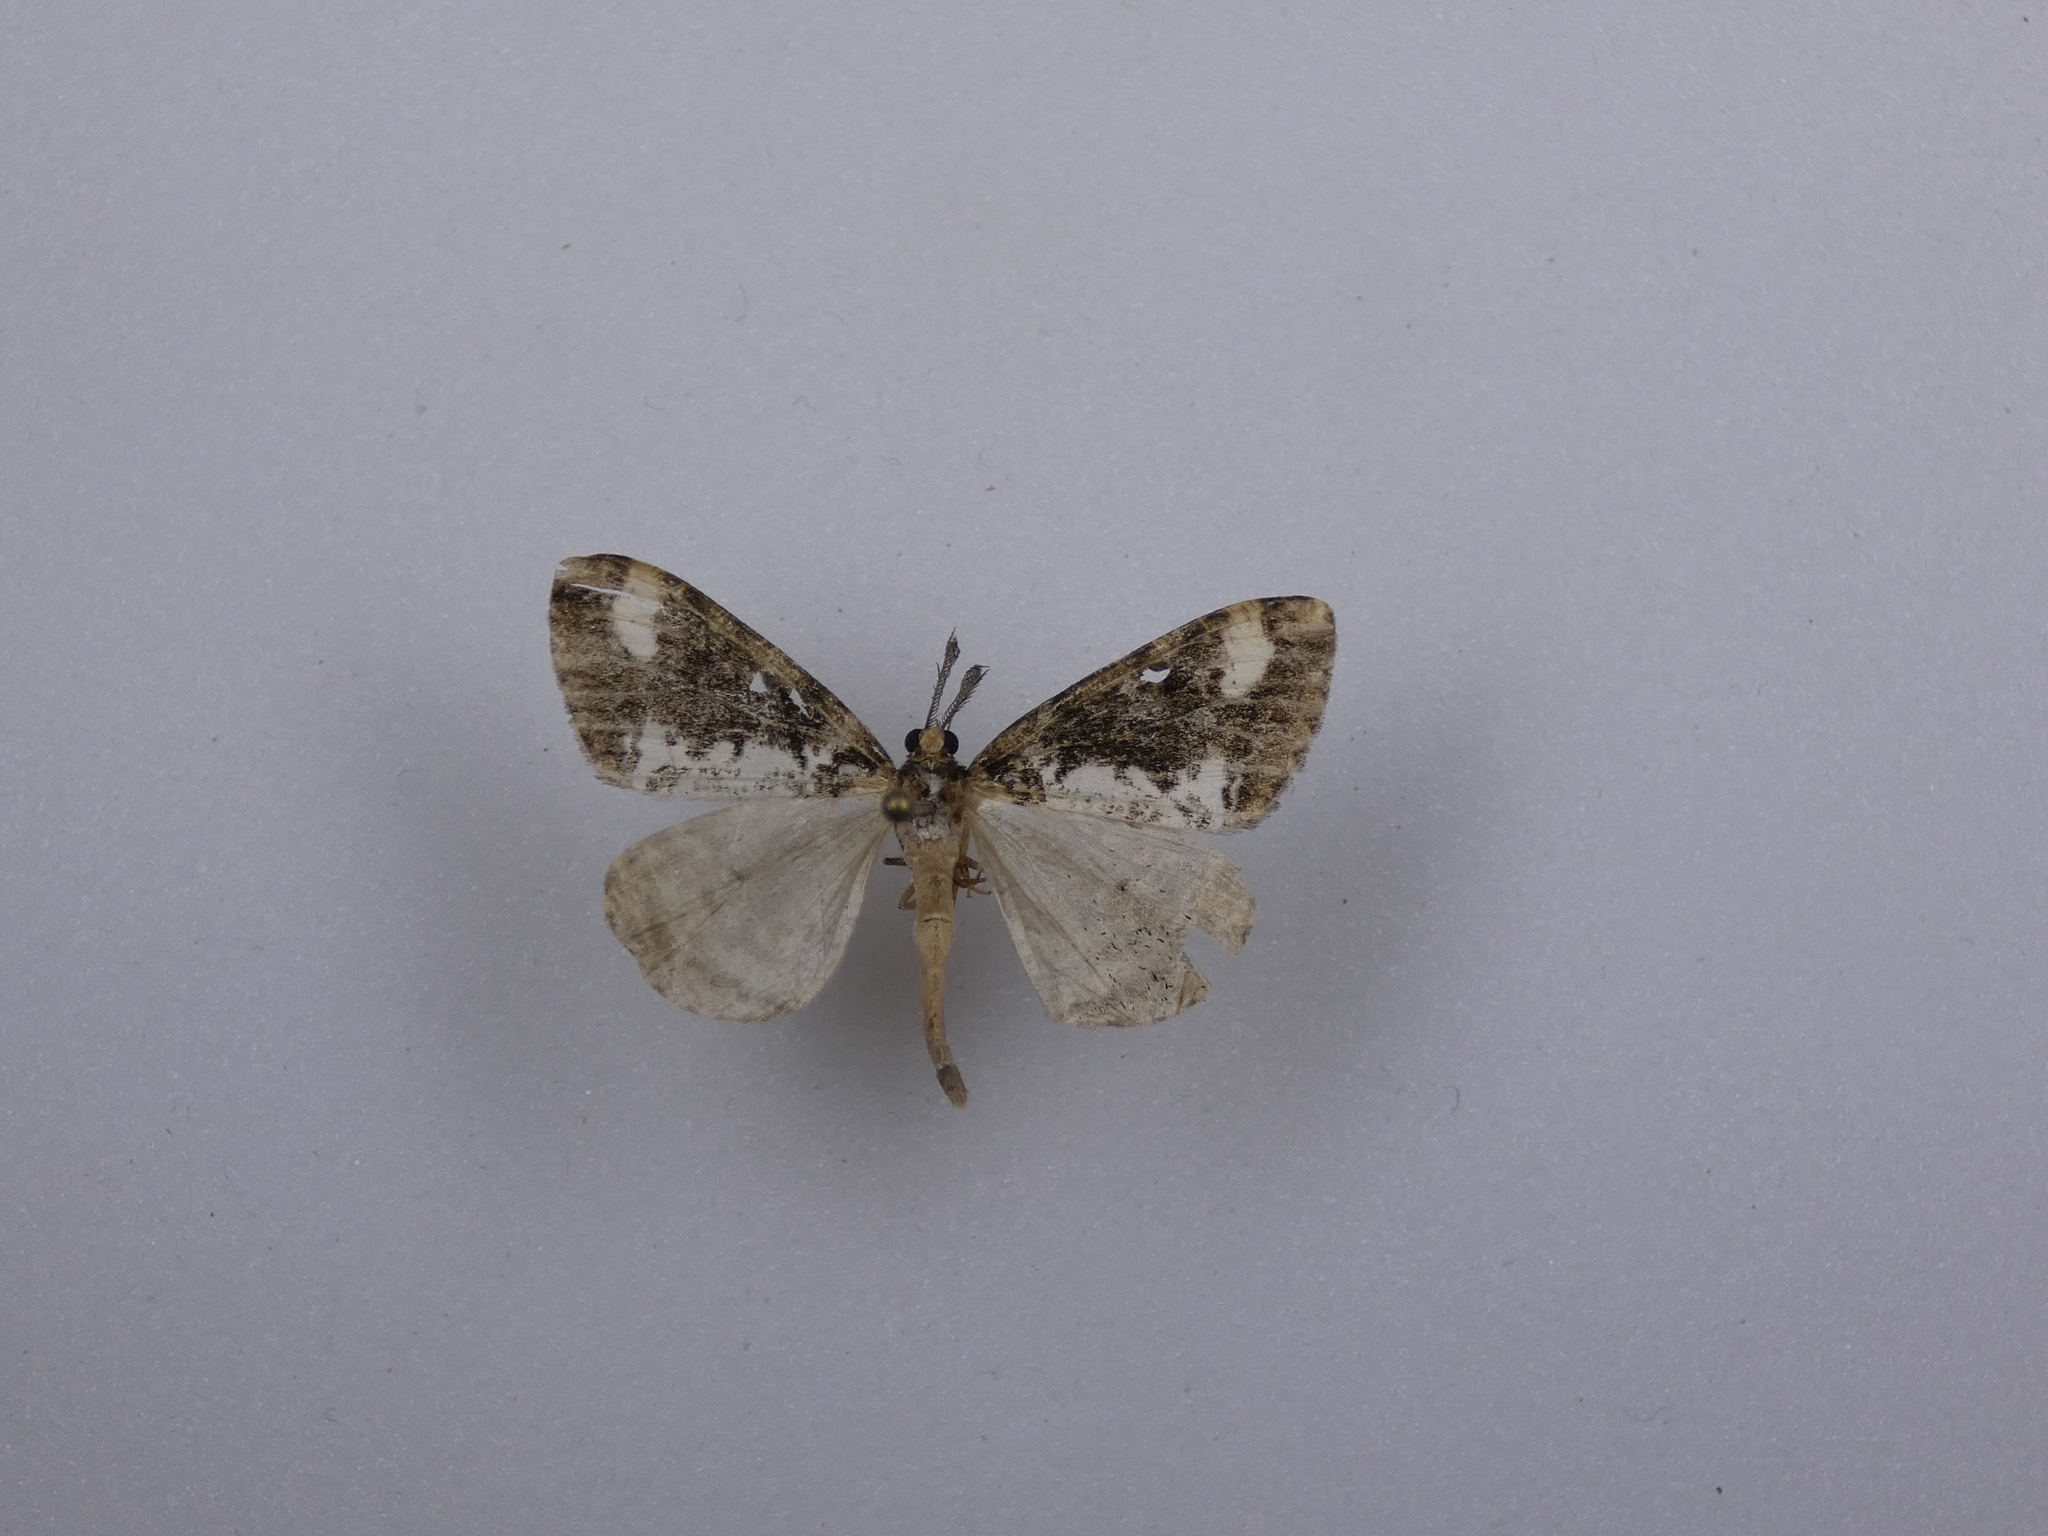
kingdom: Animalia
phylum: Arthropoda
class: Insecta
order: Lepidoptera
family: Geometridae
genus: Pseudocoremia
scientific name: Pseudocoremia leucelaea
